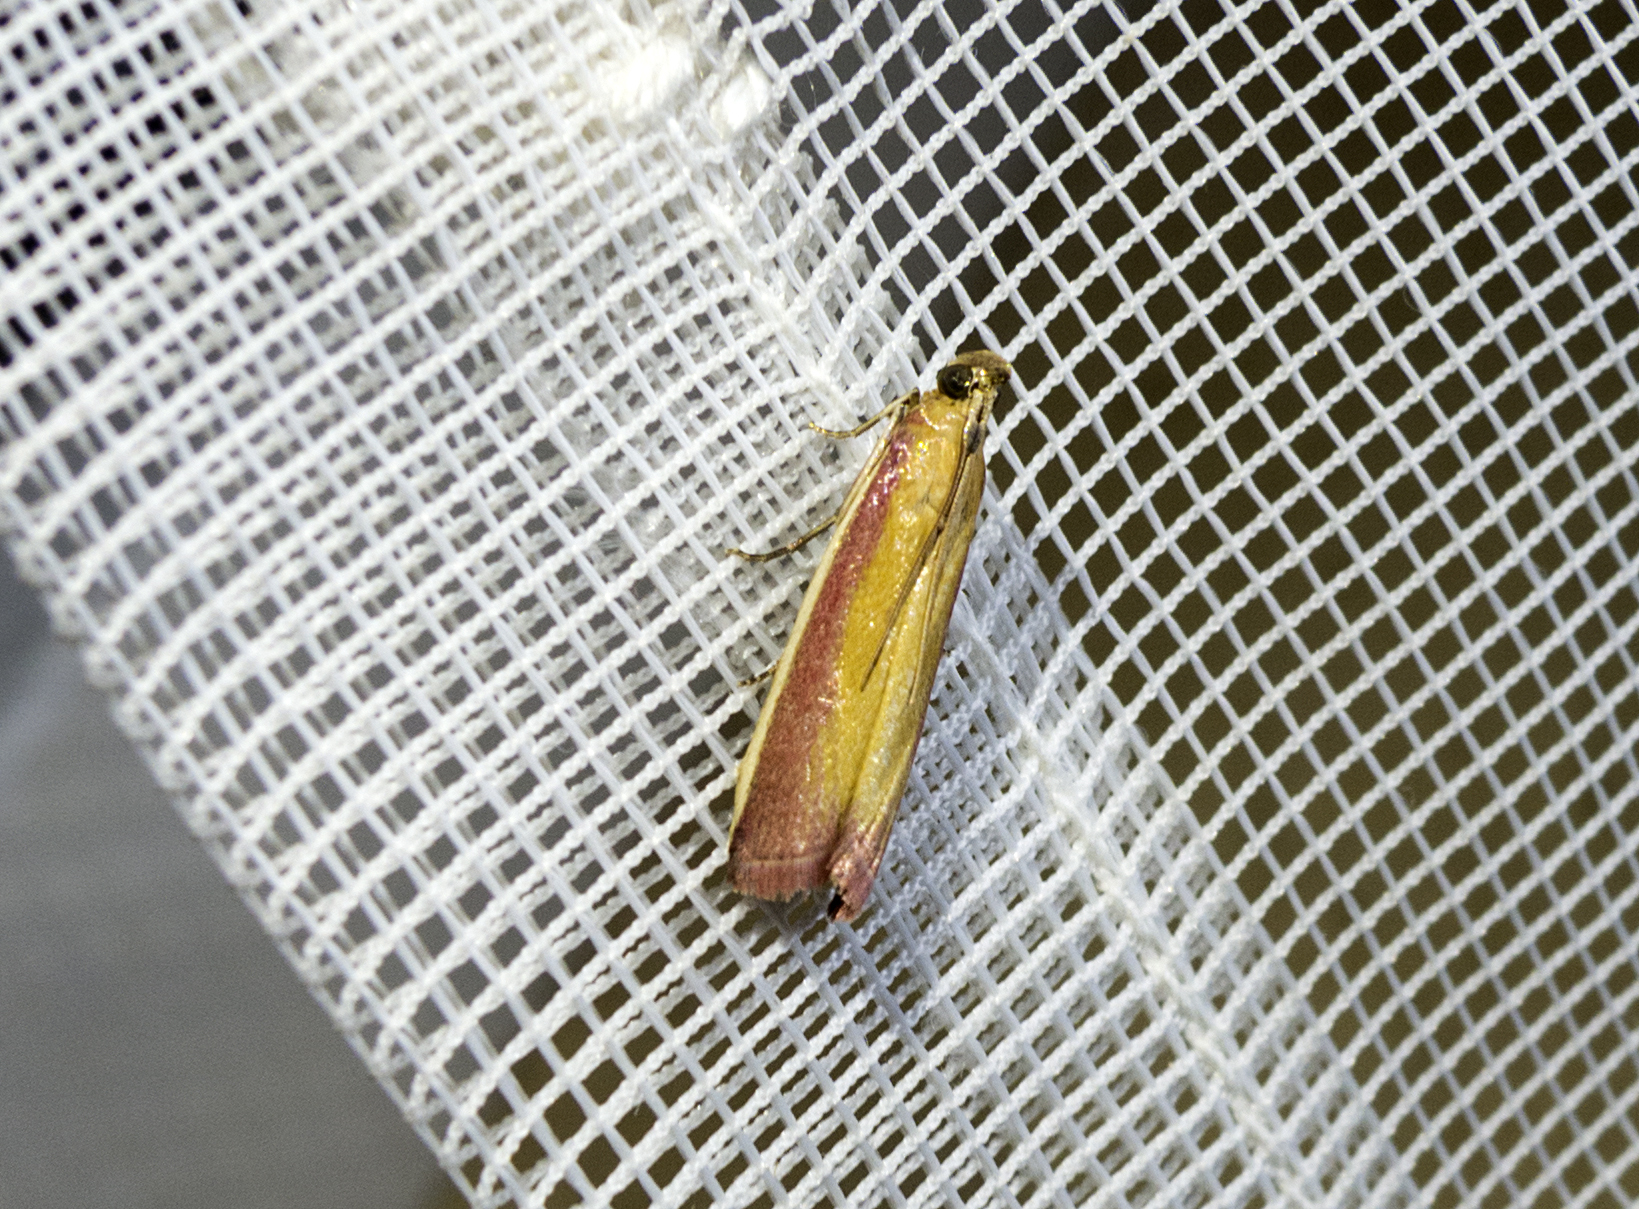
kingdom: Animalia
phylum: Arthropoda
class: Insecta
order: Lepidoptera
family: Pyralidae
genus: Oncocera
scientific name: Oncocera semirubella
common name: Rosy-striped knot-horn
